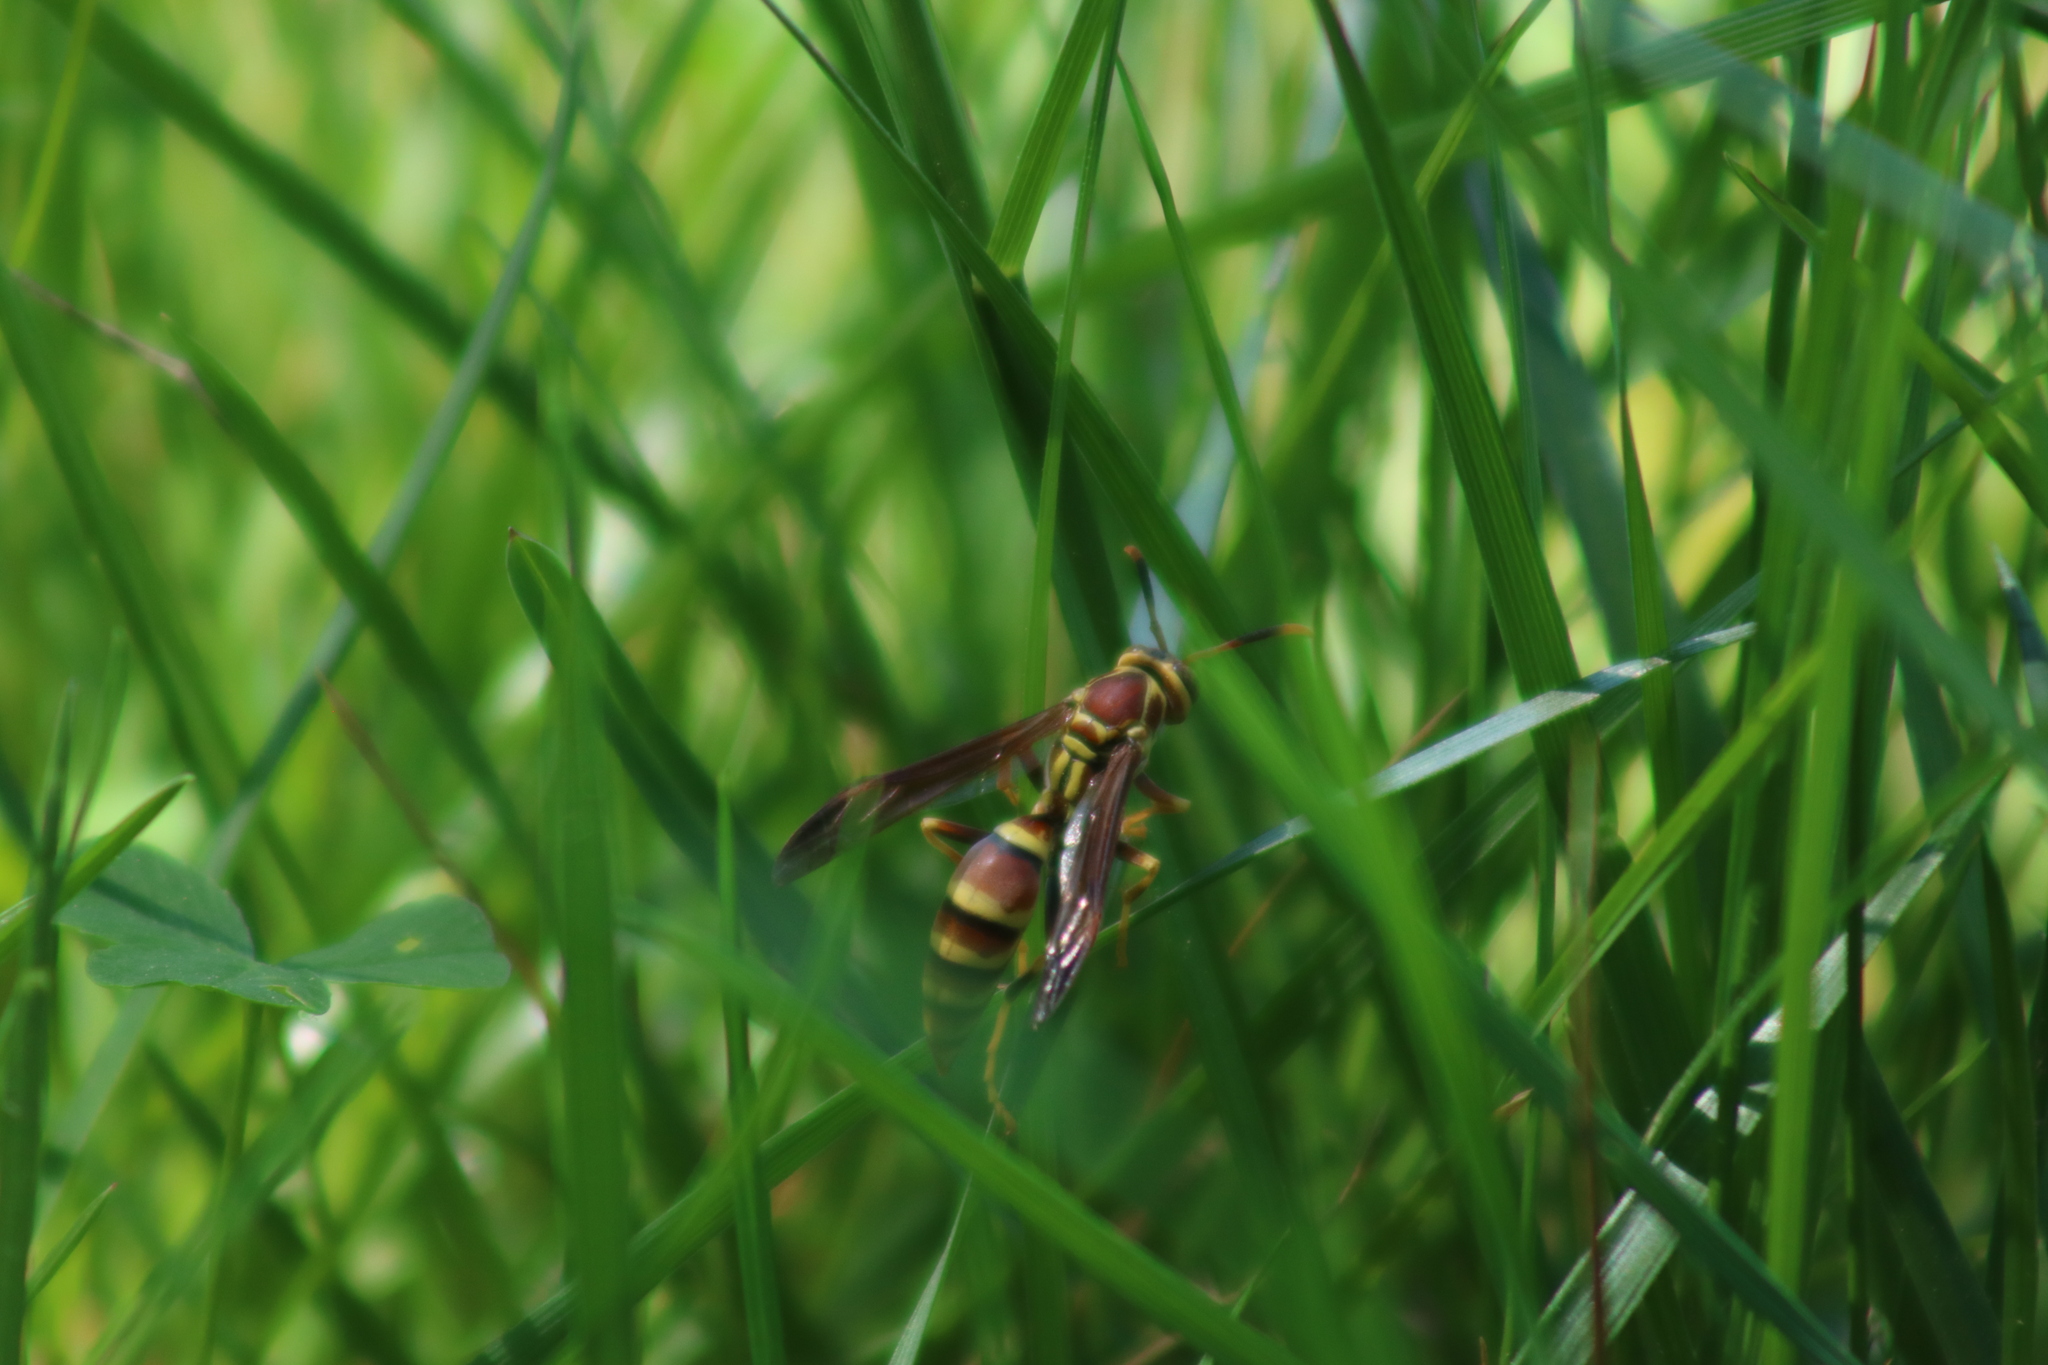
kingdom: Animalia
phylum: Arthropoda
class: Insecta
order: Hymenoptera
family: Eumenidae
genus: Polistes
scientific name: Polistes exclamans
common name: Paper wasp
